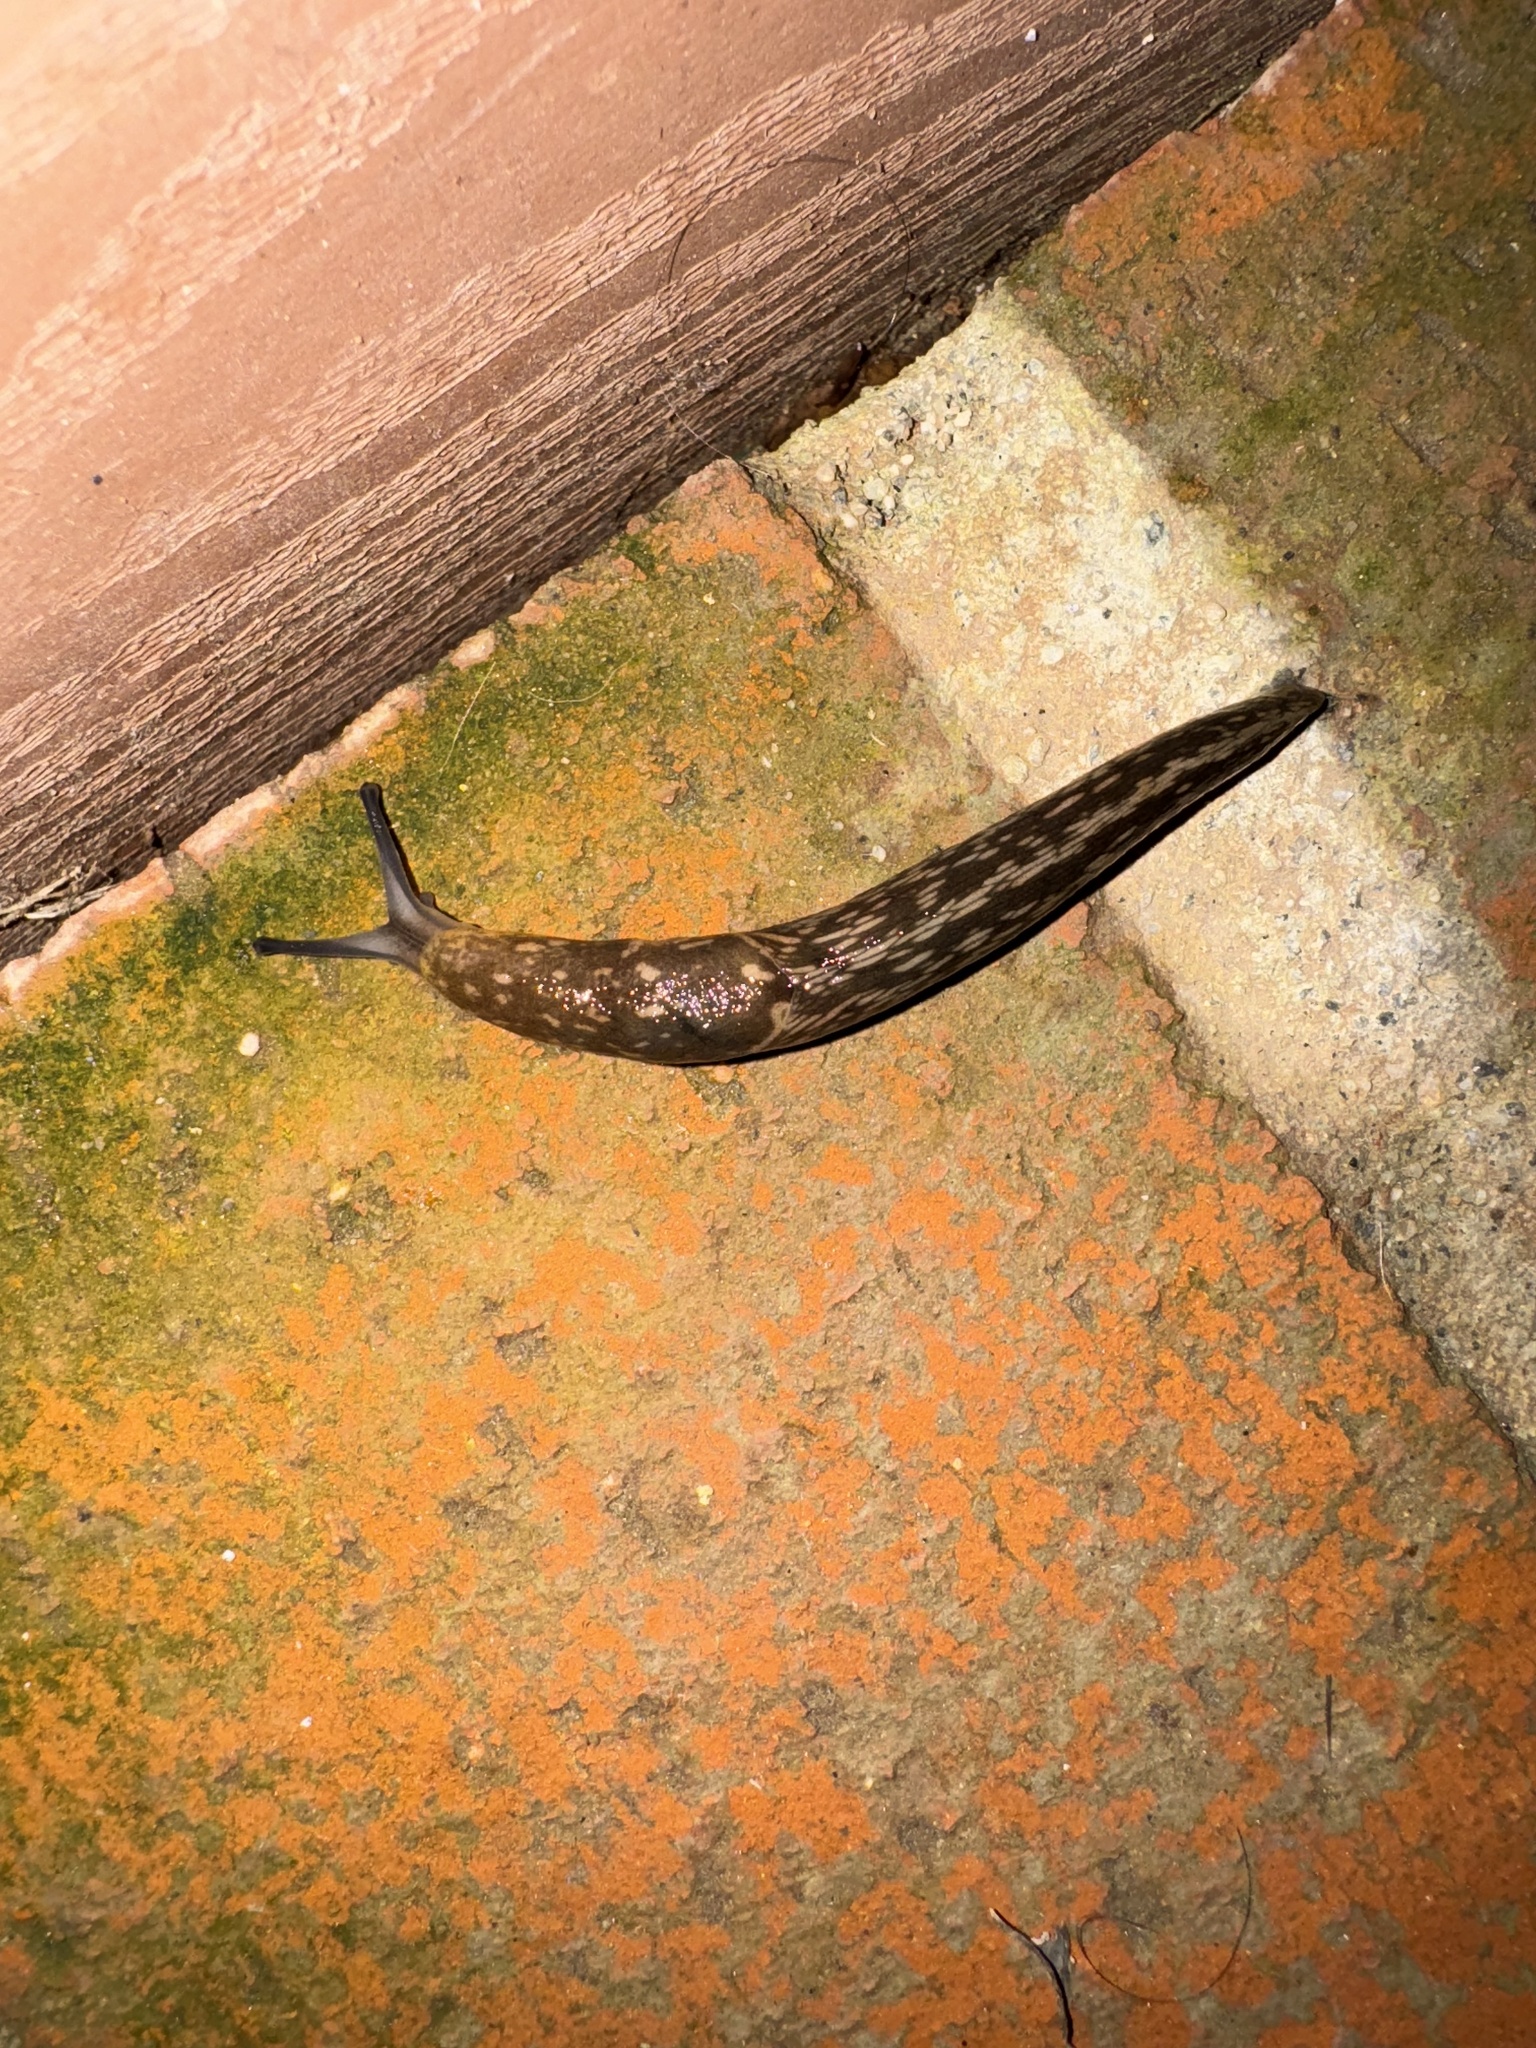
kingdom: Animalia
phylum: Mollusca
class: Gastropoda
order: Stylommatophora
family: Limacidae
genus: Limacus
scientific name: Limacus flavus
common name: Yellow gardenslug
